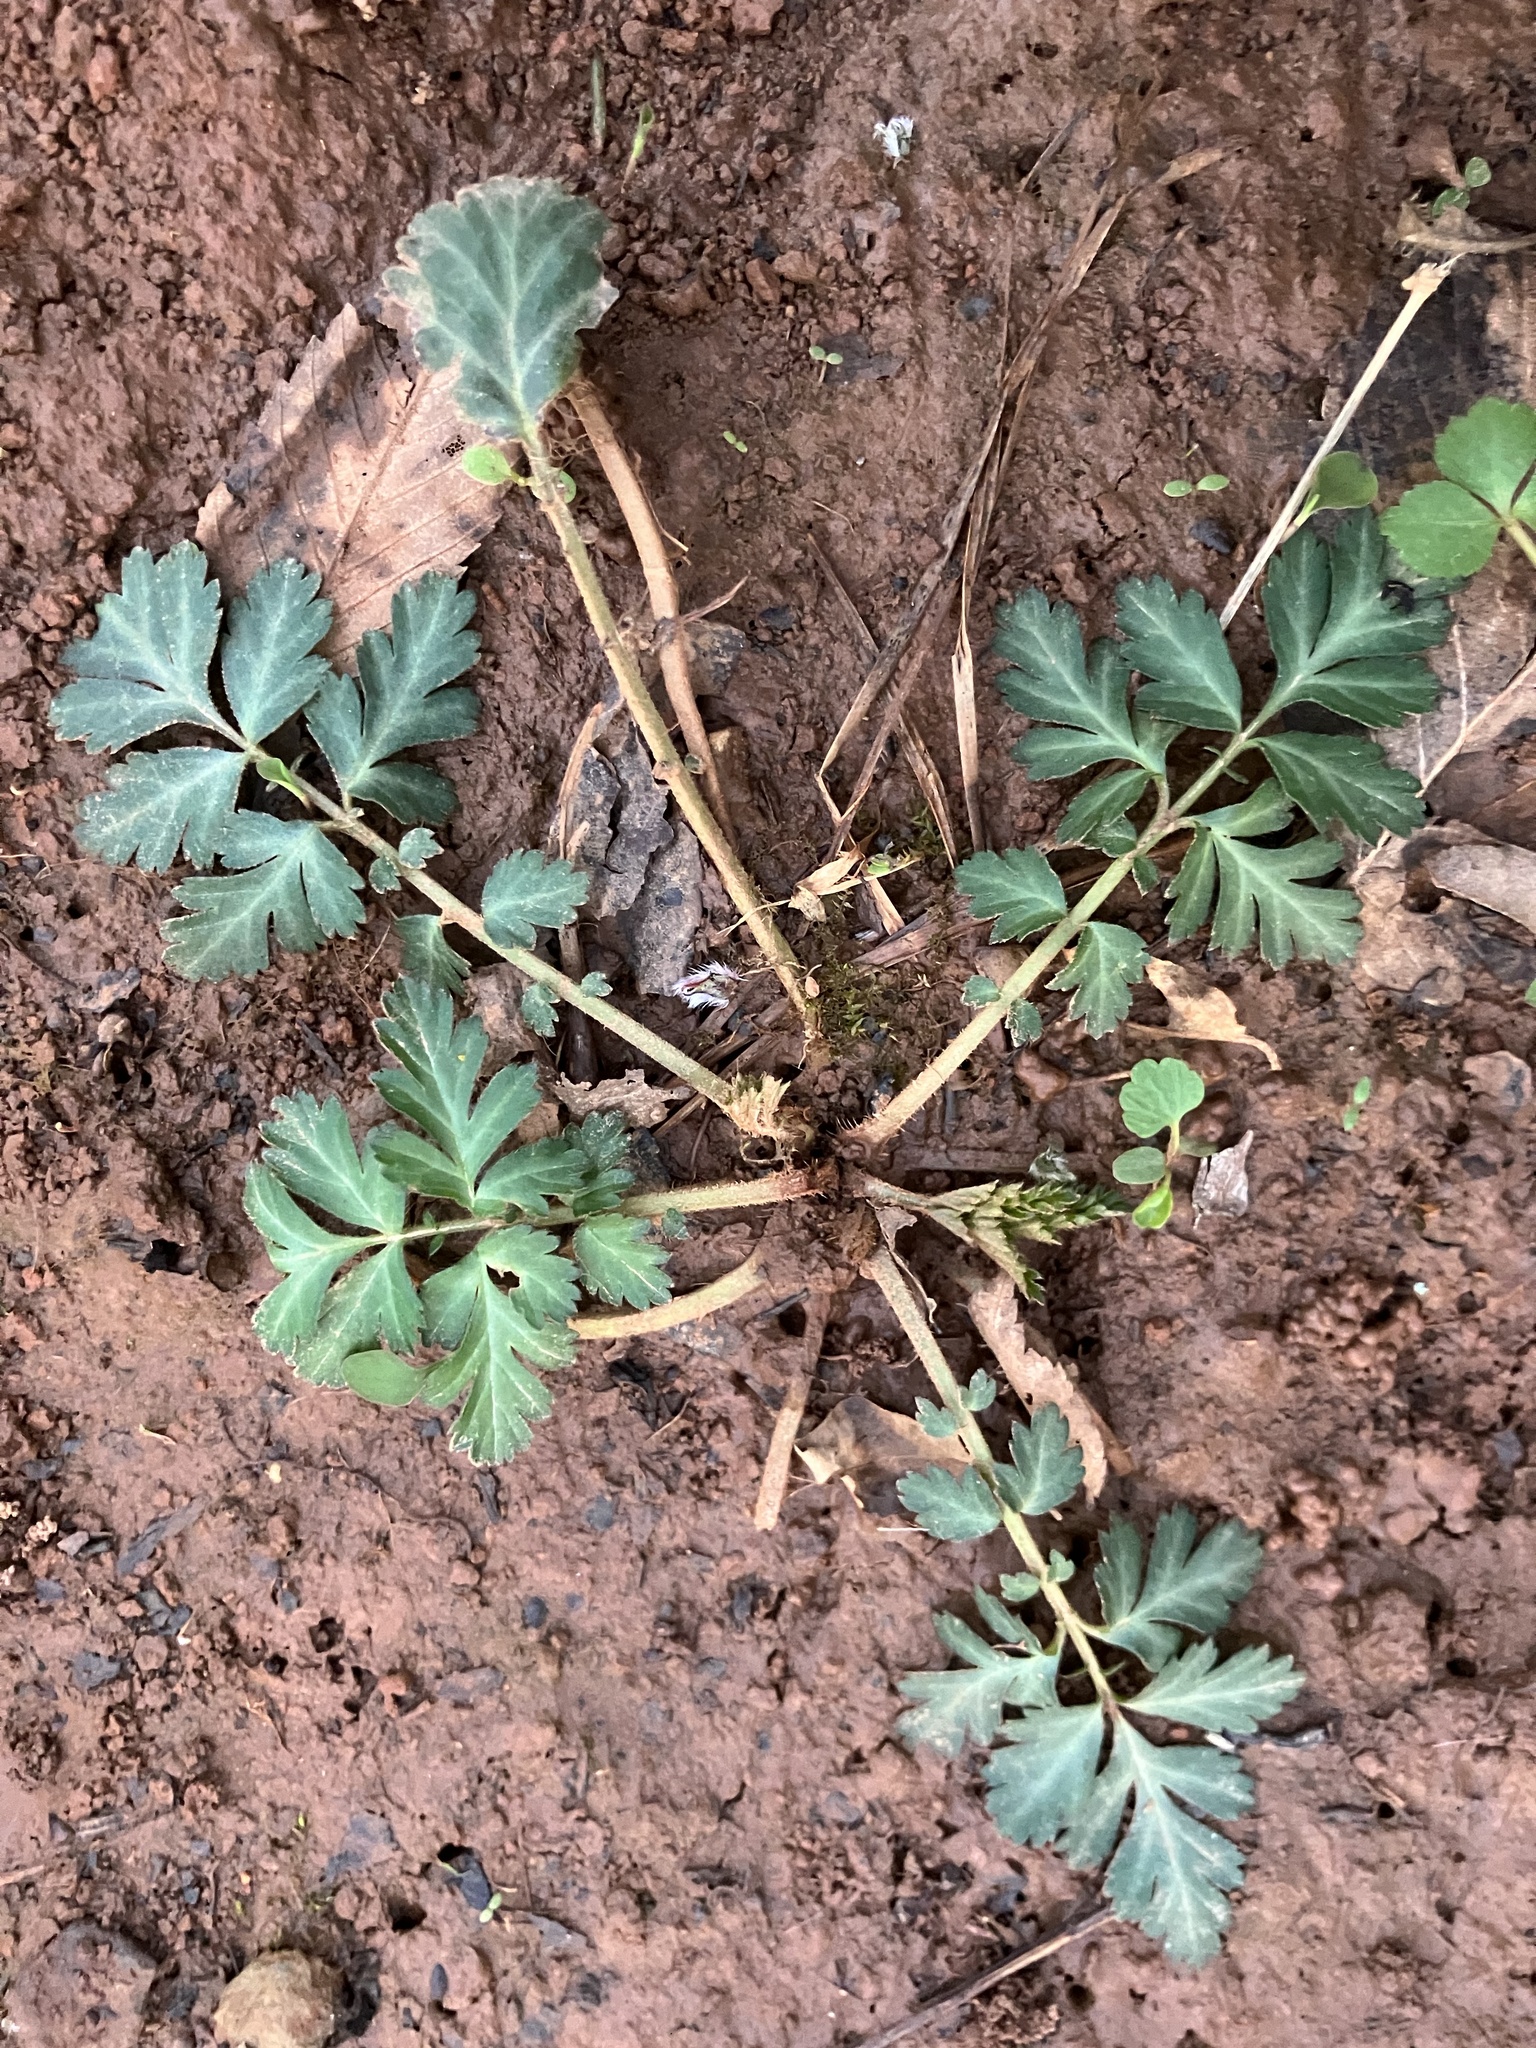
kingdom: Plantae
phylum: Tracheophyta
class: Magnoliopsida
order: Rosales
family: Rosaceae
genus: Geum
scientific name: Geum canadense
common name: White avens
